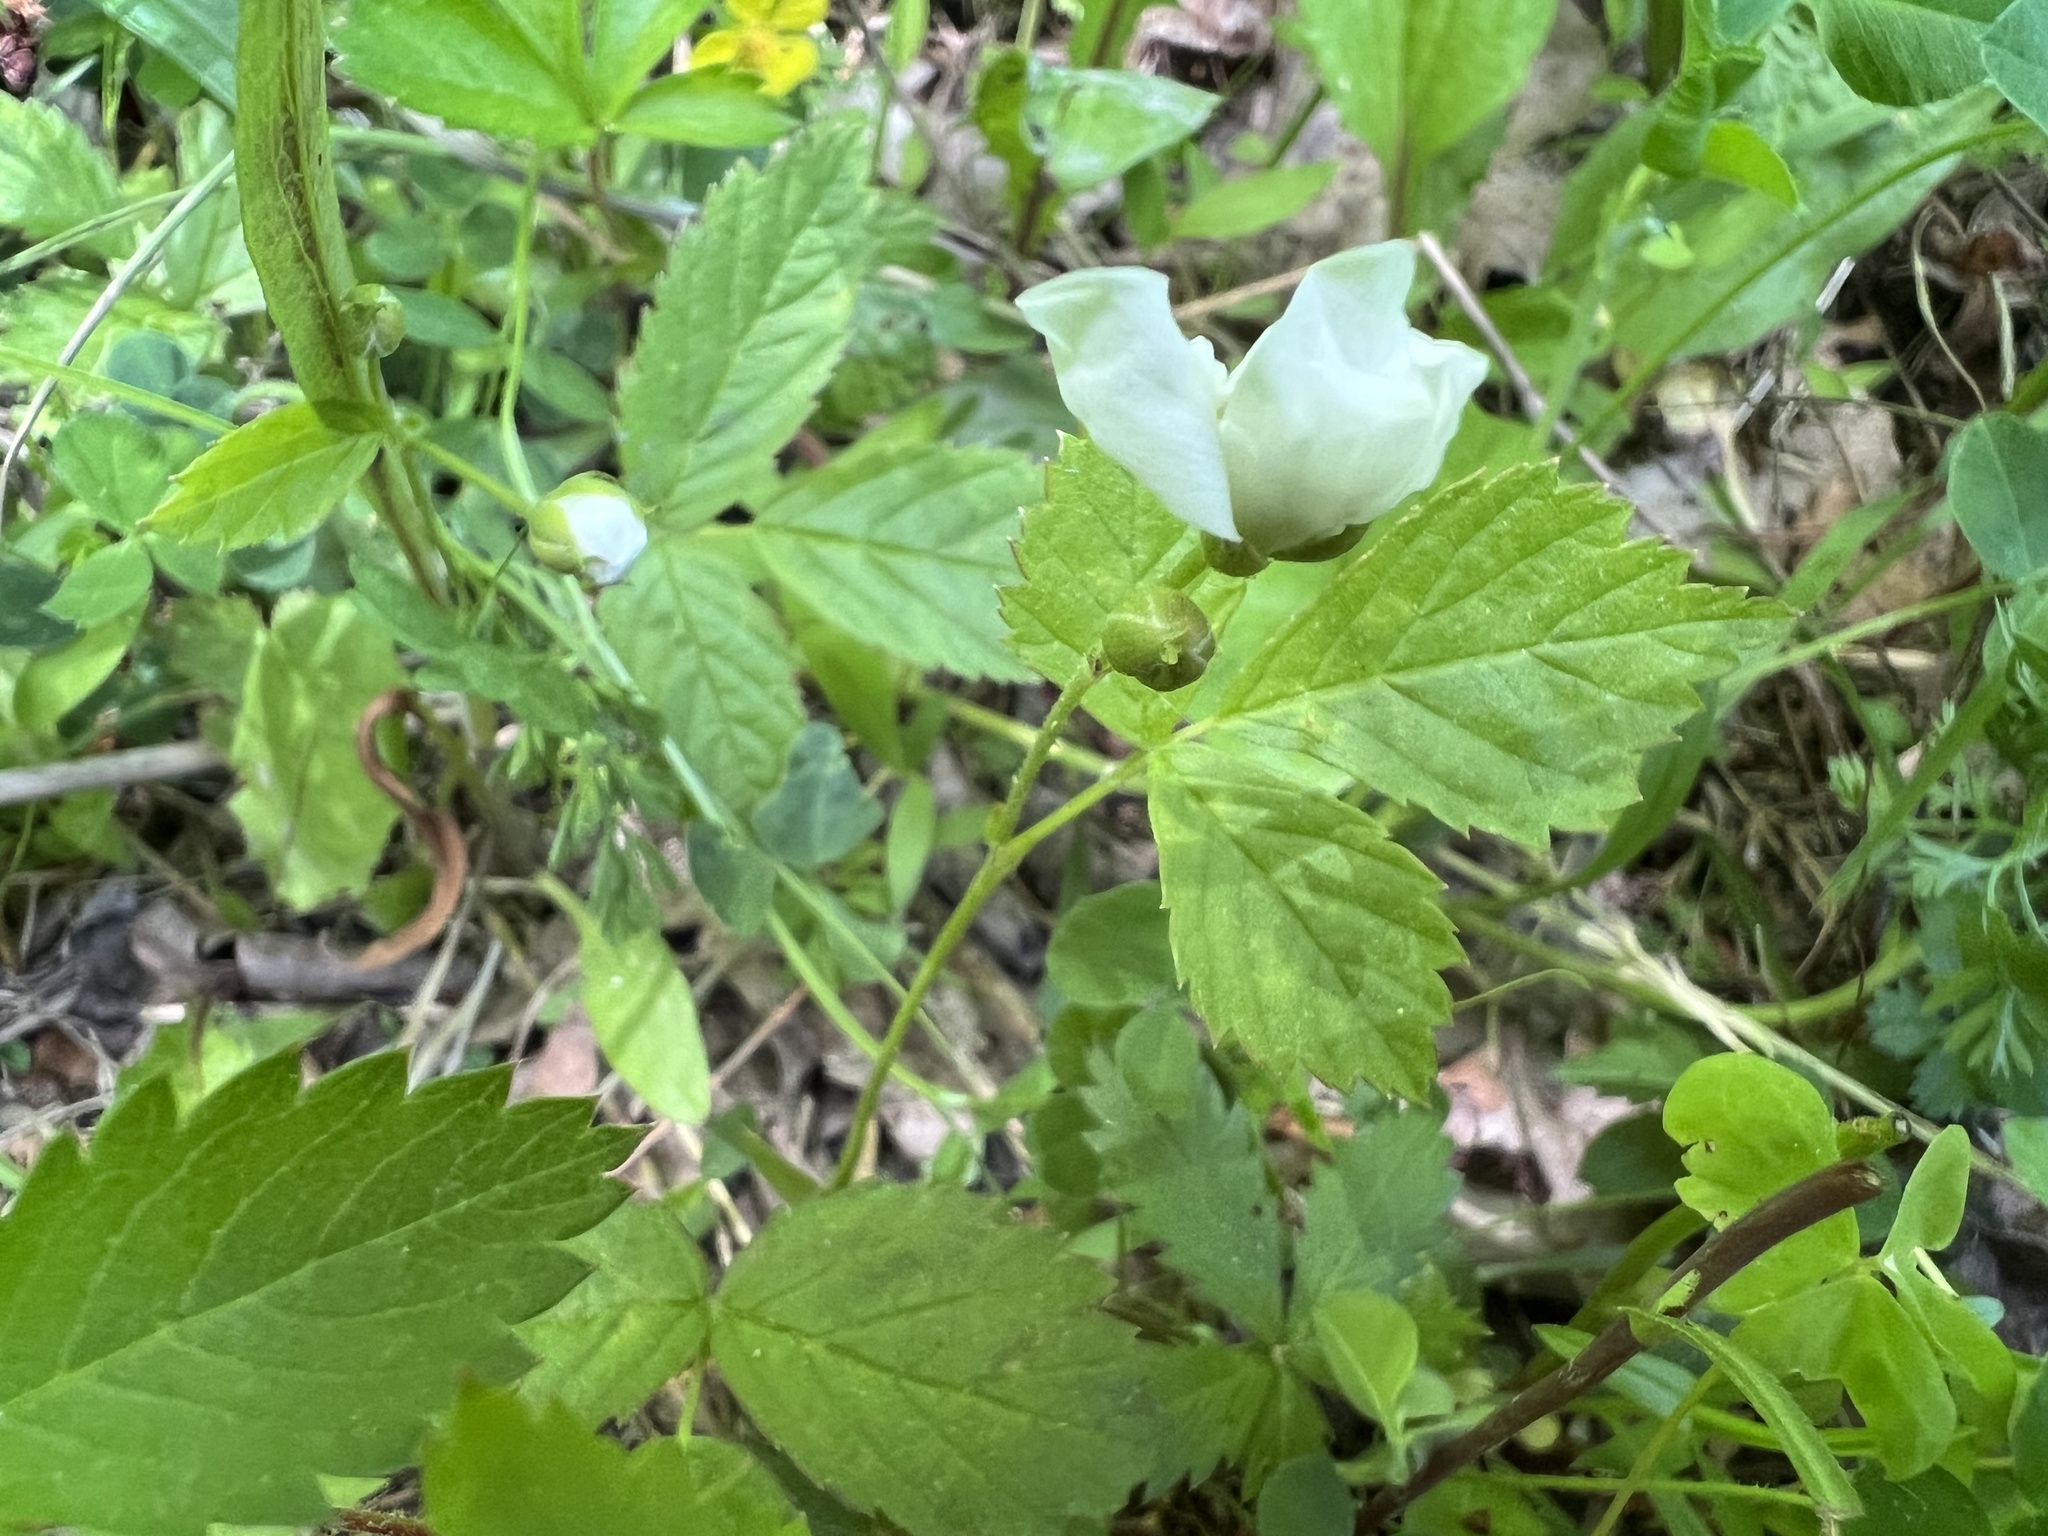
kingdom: Plantae
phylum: Tracheophyta
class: Magnoliopsida
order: Rosales
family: Rosaceae
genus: Rubus
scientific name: Rubus flagellaris
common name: American dewberry
